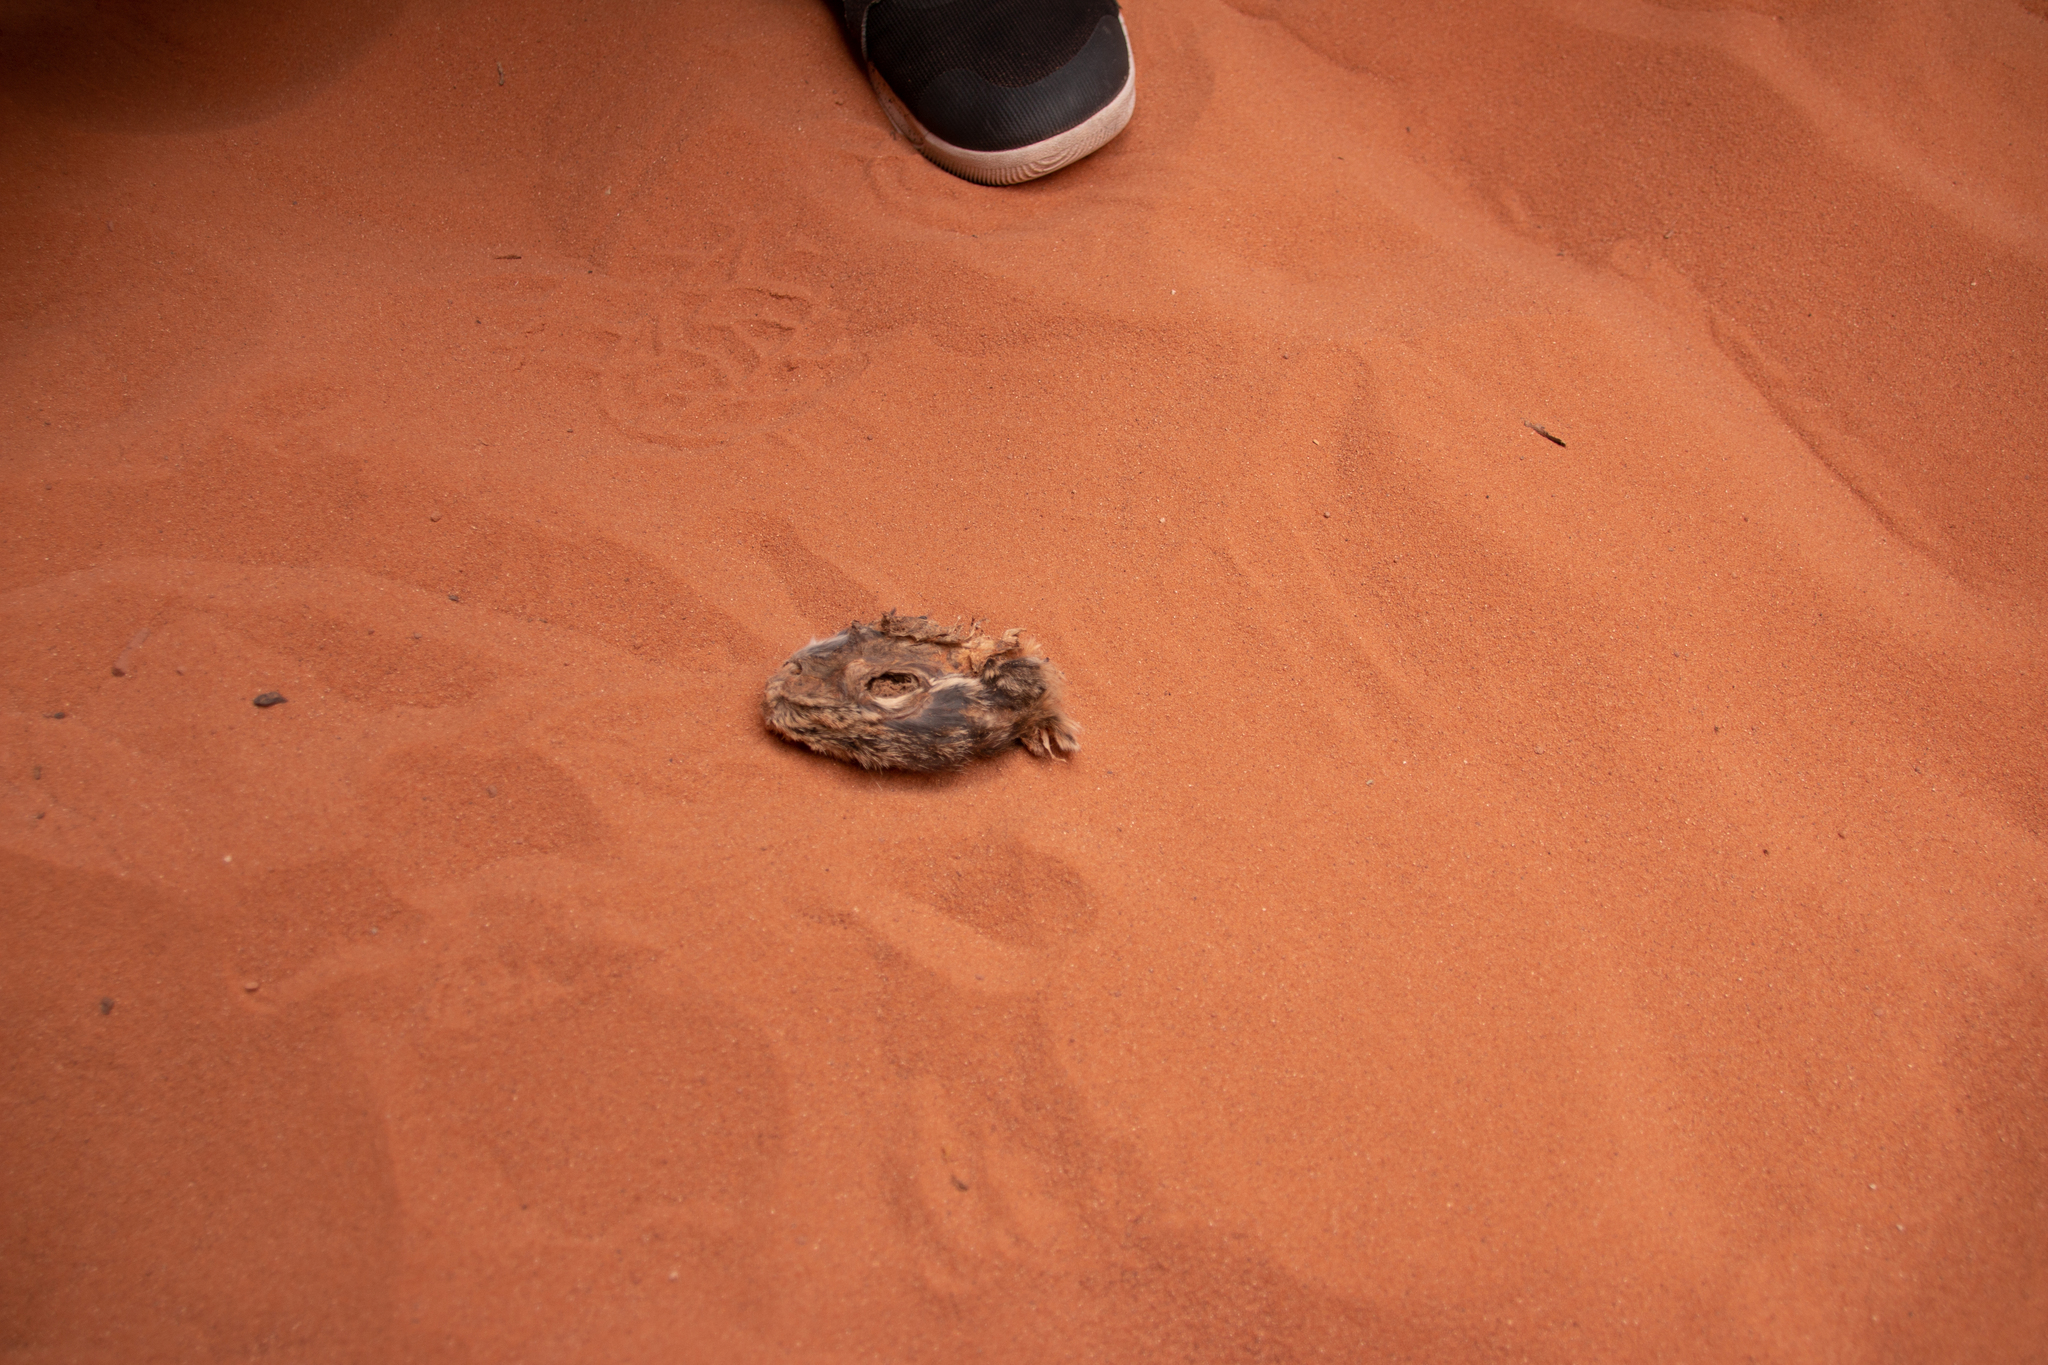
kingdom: Animalia
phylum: Chordata
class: Mammalia
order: Lagomorpha
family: Leporidae
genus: Sylvilagus
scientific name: Sylvilagus audubonii
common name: Desert cottontail
